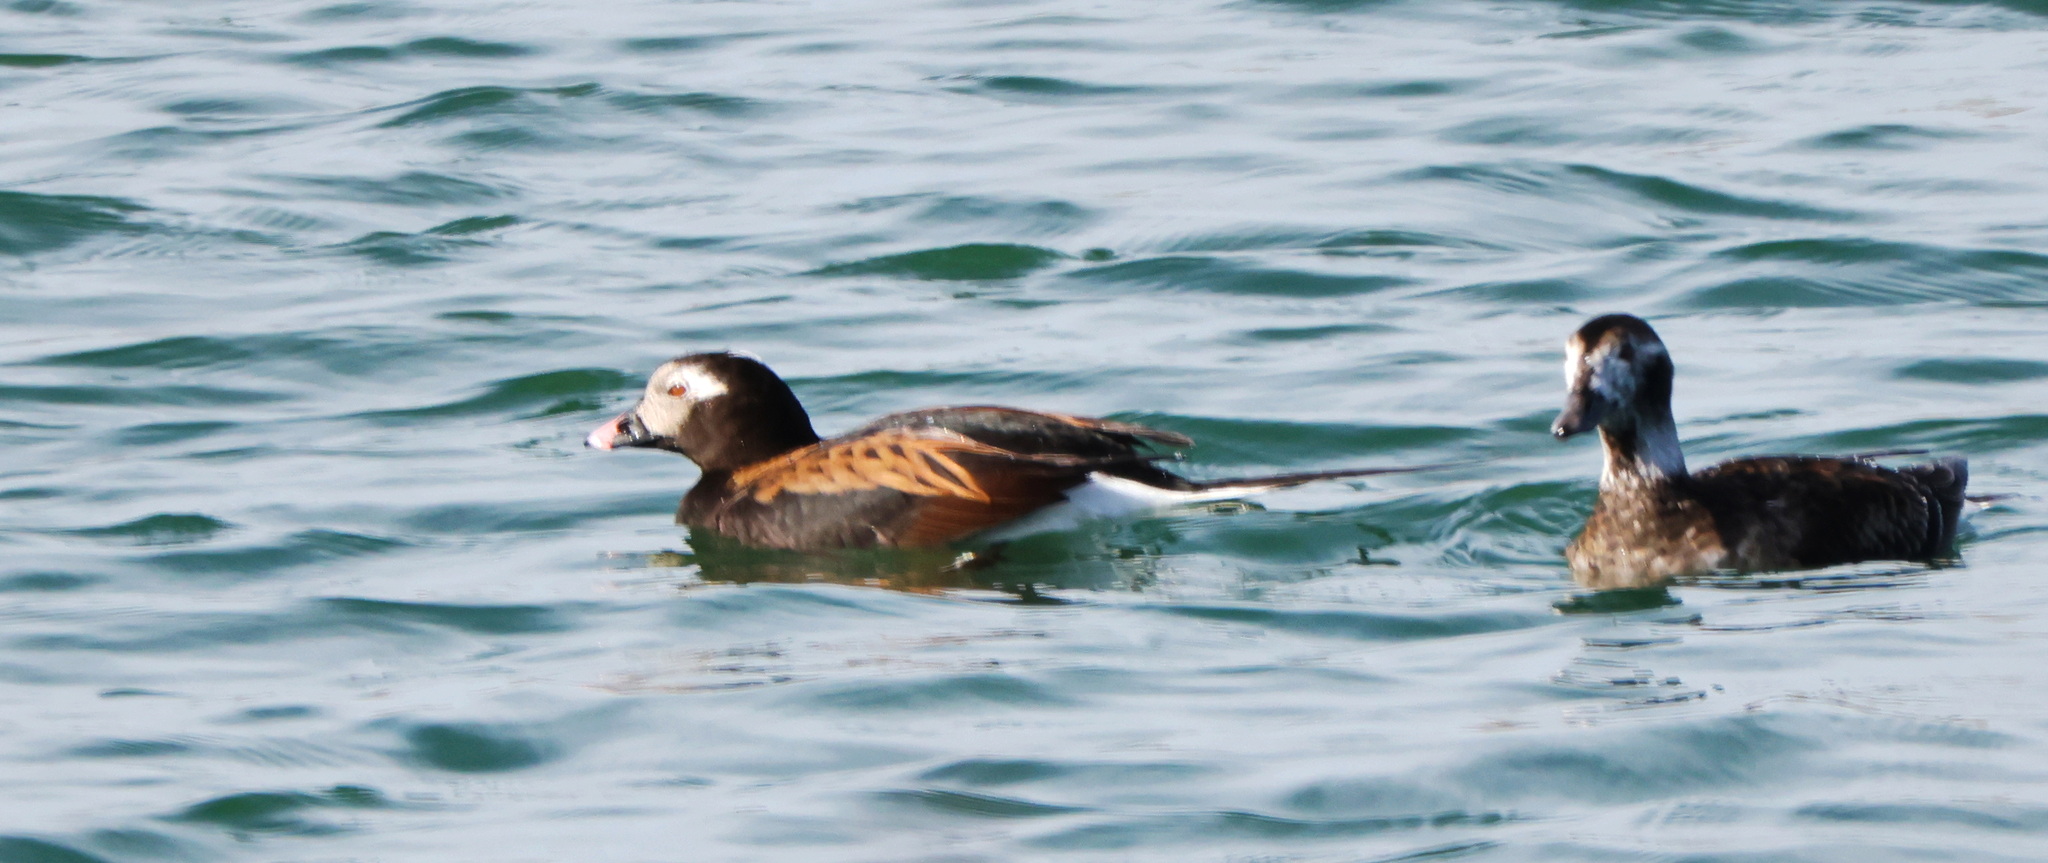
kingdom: Animalia
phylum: Chordata
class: Aves
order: Anseriformes
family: Anatidae
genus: Clangula
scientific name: Clangula hyemalis
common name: Long-tailed duck
